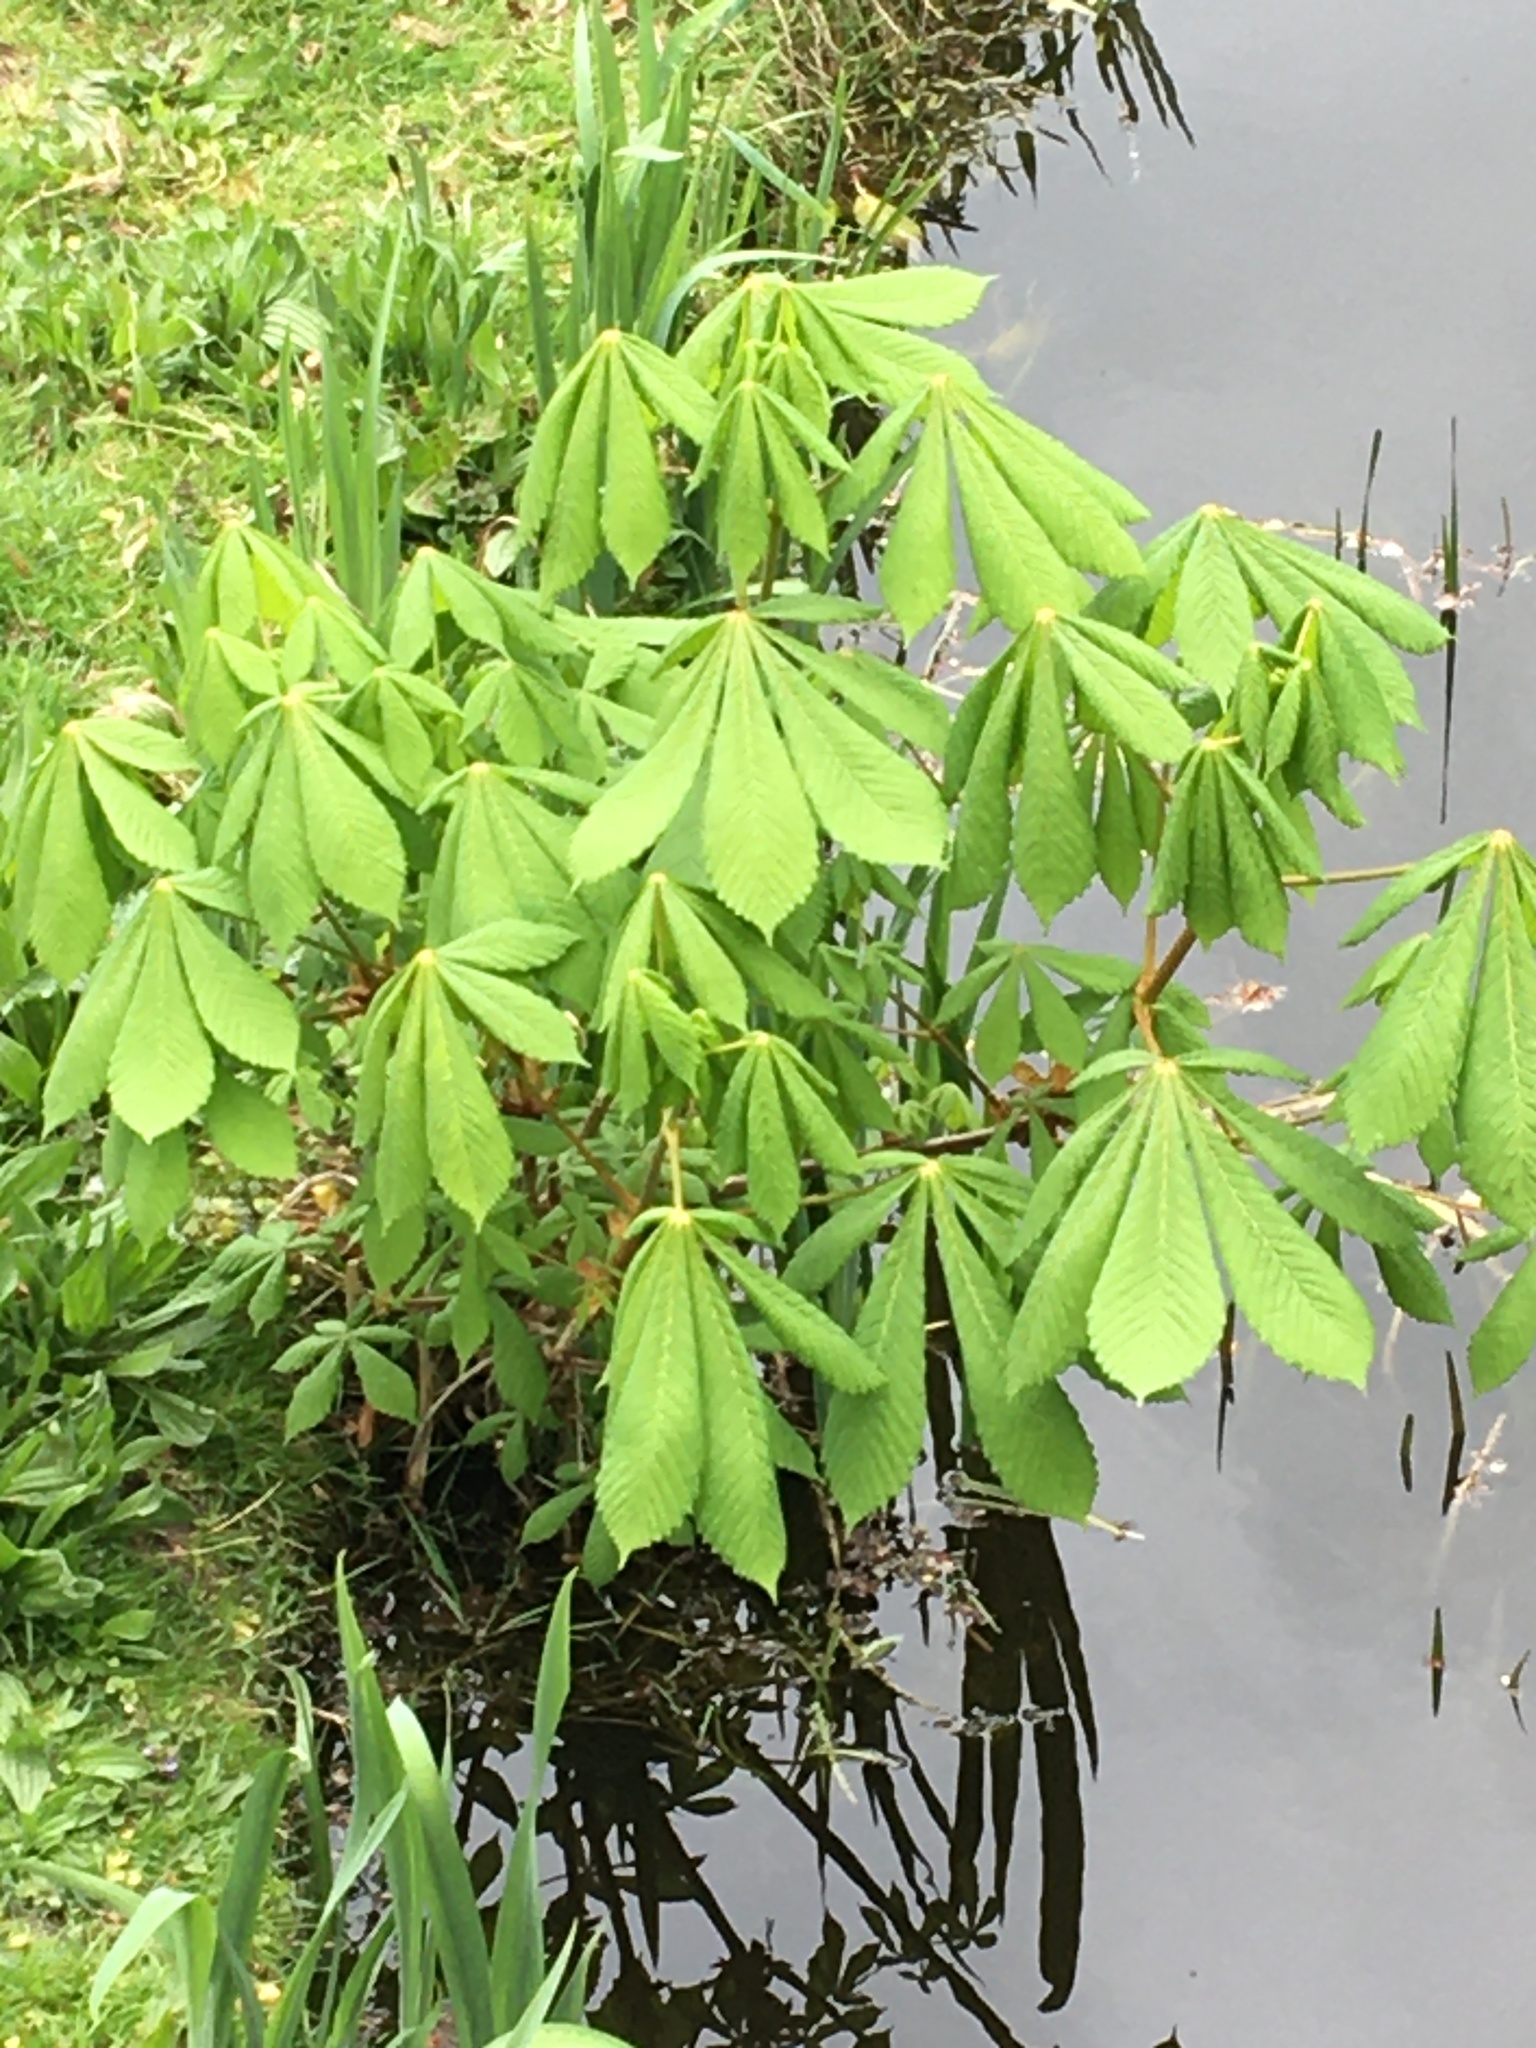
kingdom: Plantae
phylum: Tracheophyta
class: Magnoliopsida
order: Sapindales
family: Sapindaceae
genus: Aesculus
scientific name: Aesculus hippocastanum
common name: Horse-chestnut
